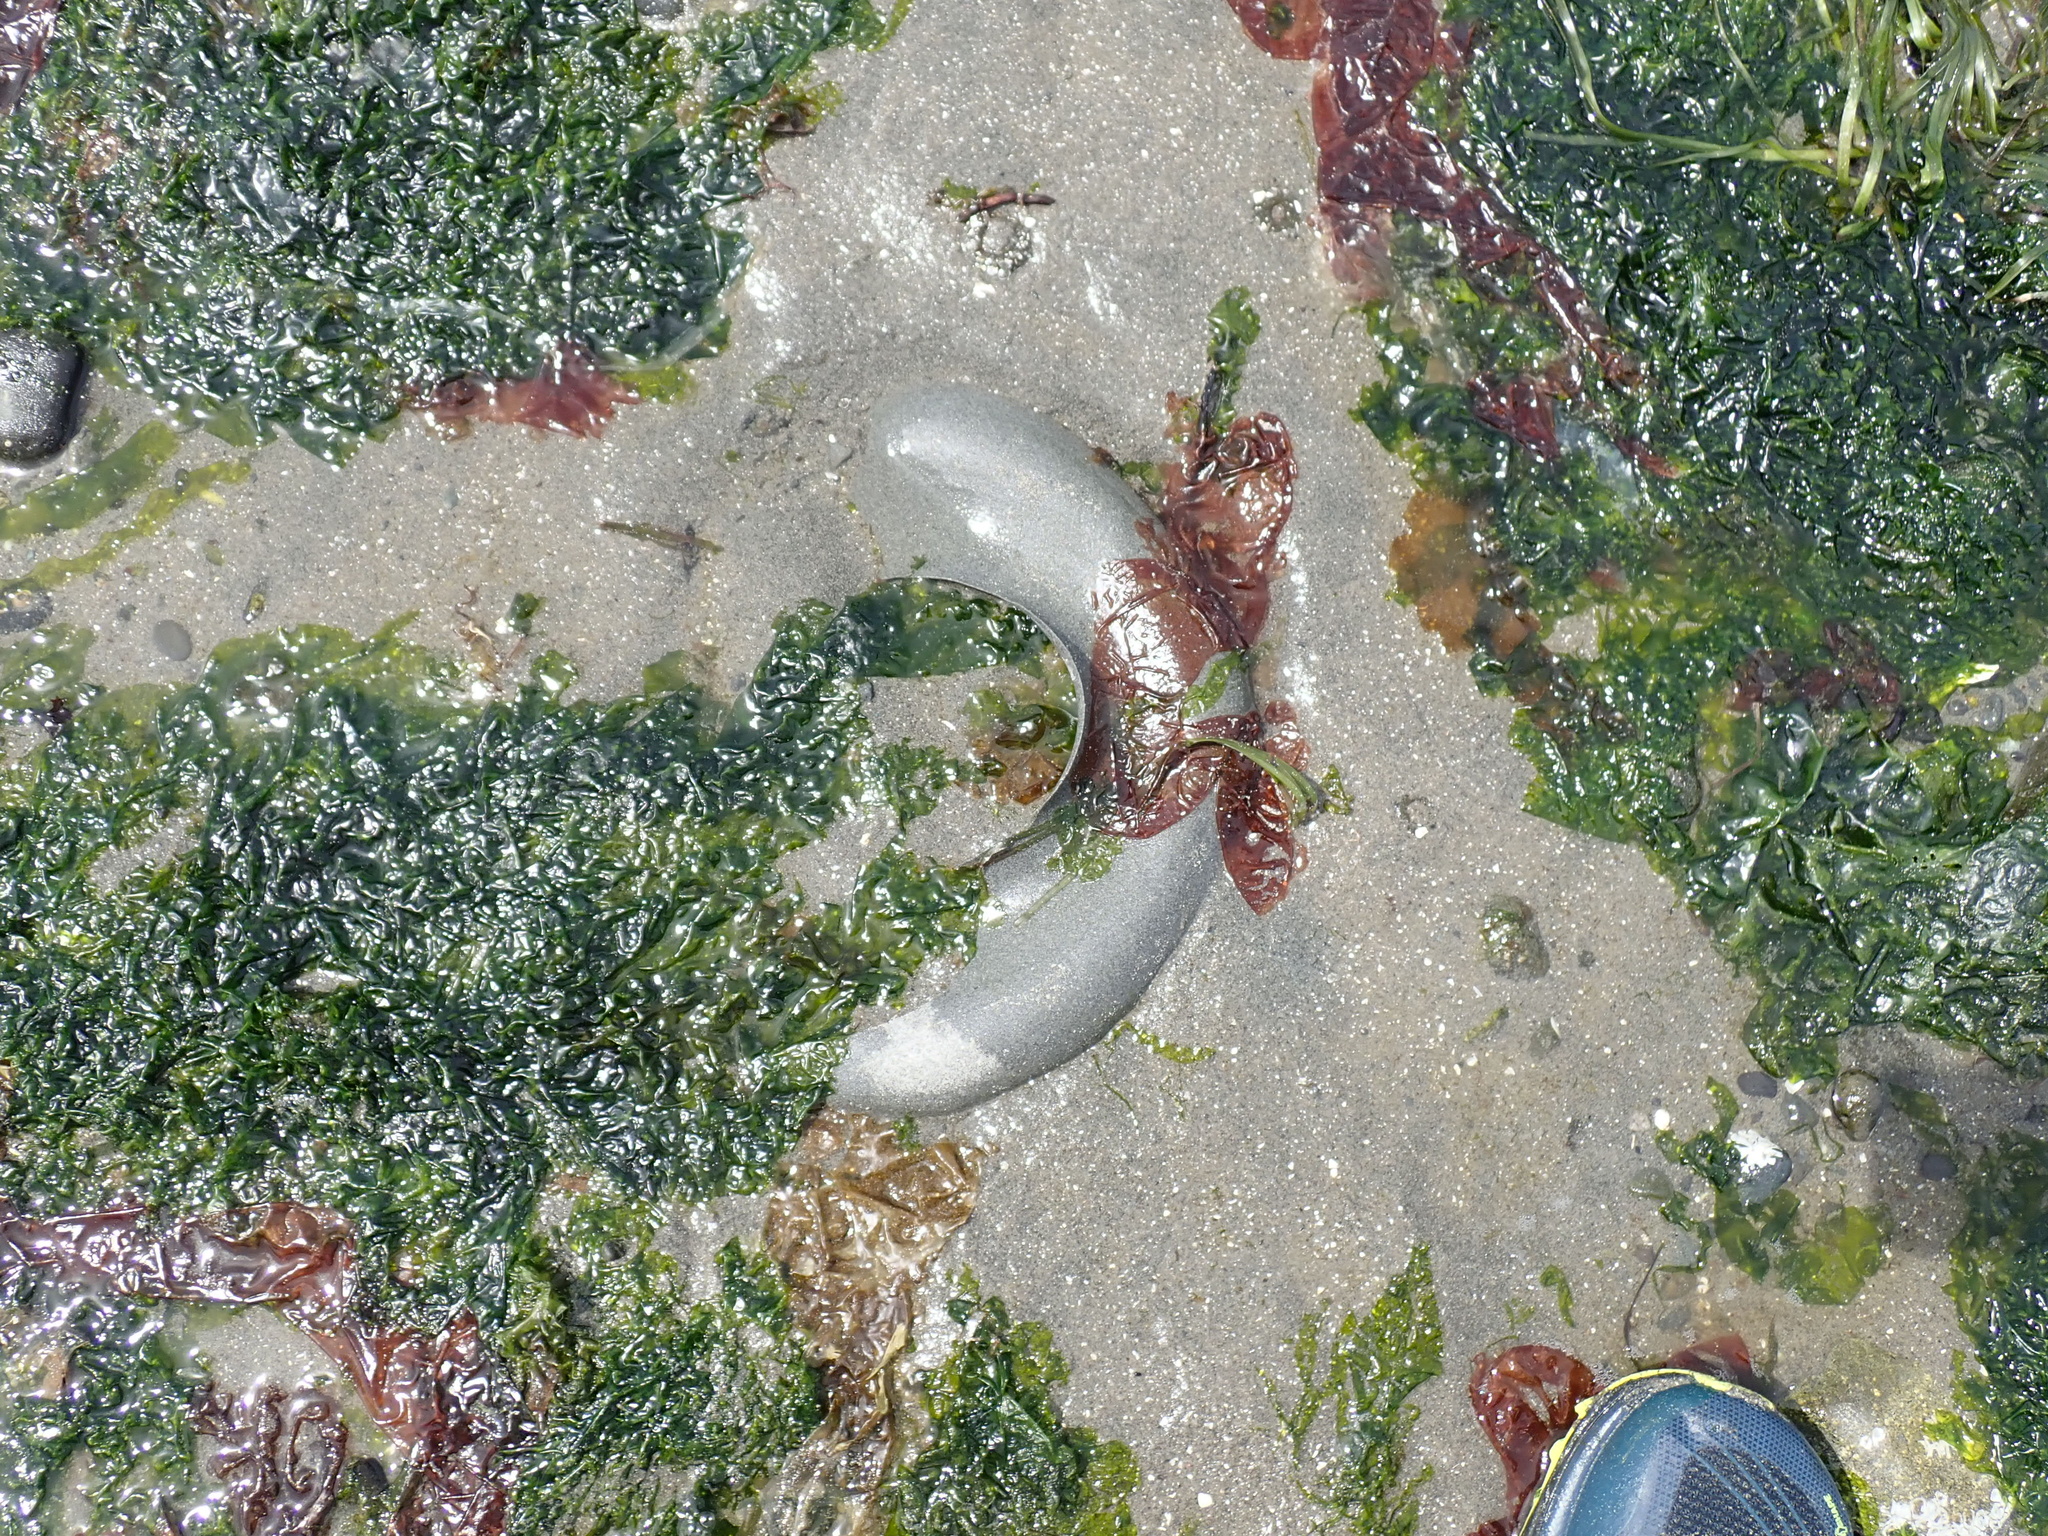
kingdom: Animalia
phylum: Mollusca
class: Gastropoda
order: Littorinimorpha
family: Naticidae
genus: Neverita
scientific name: Neverita lewisii
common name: Lewis' moonsnail
